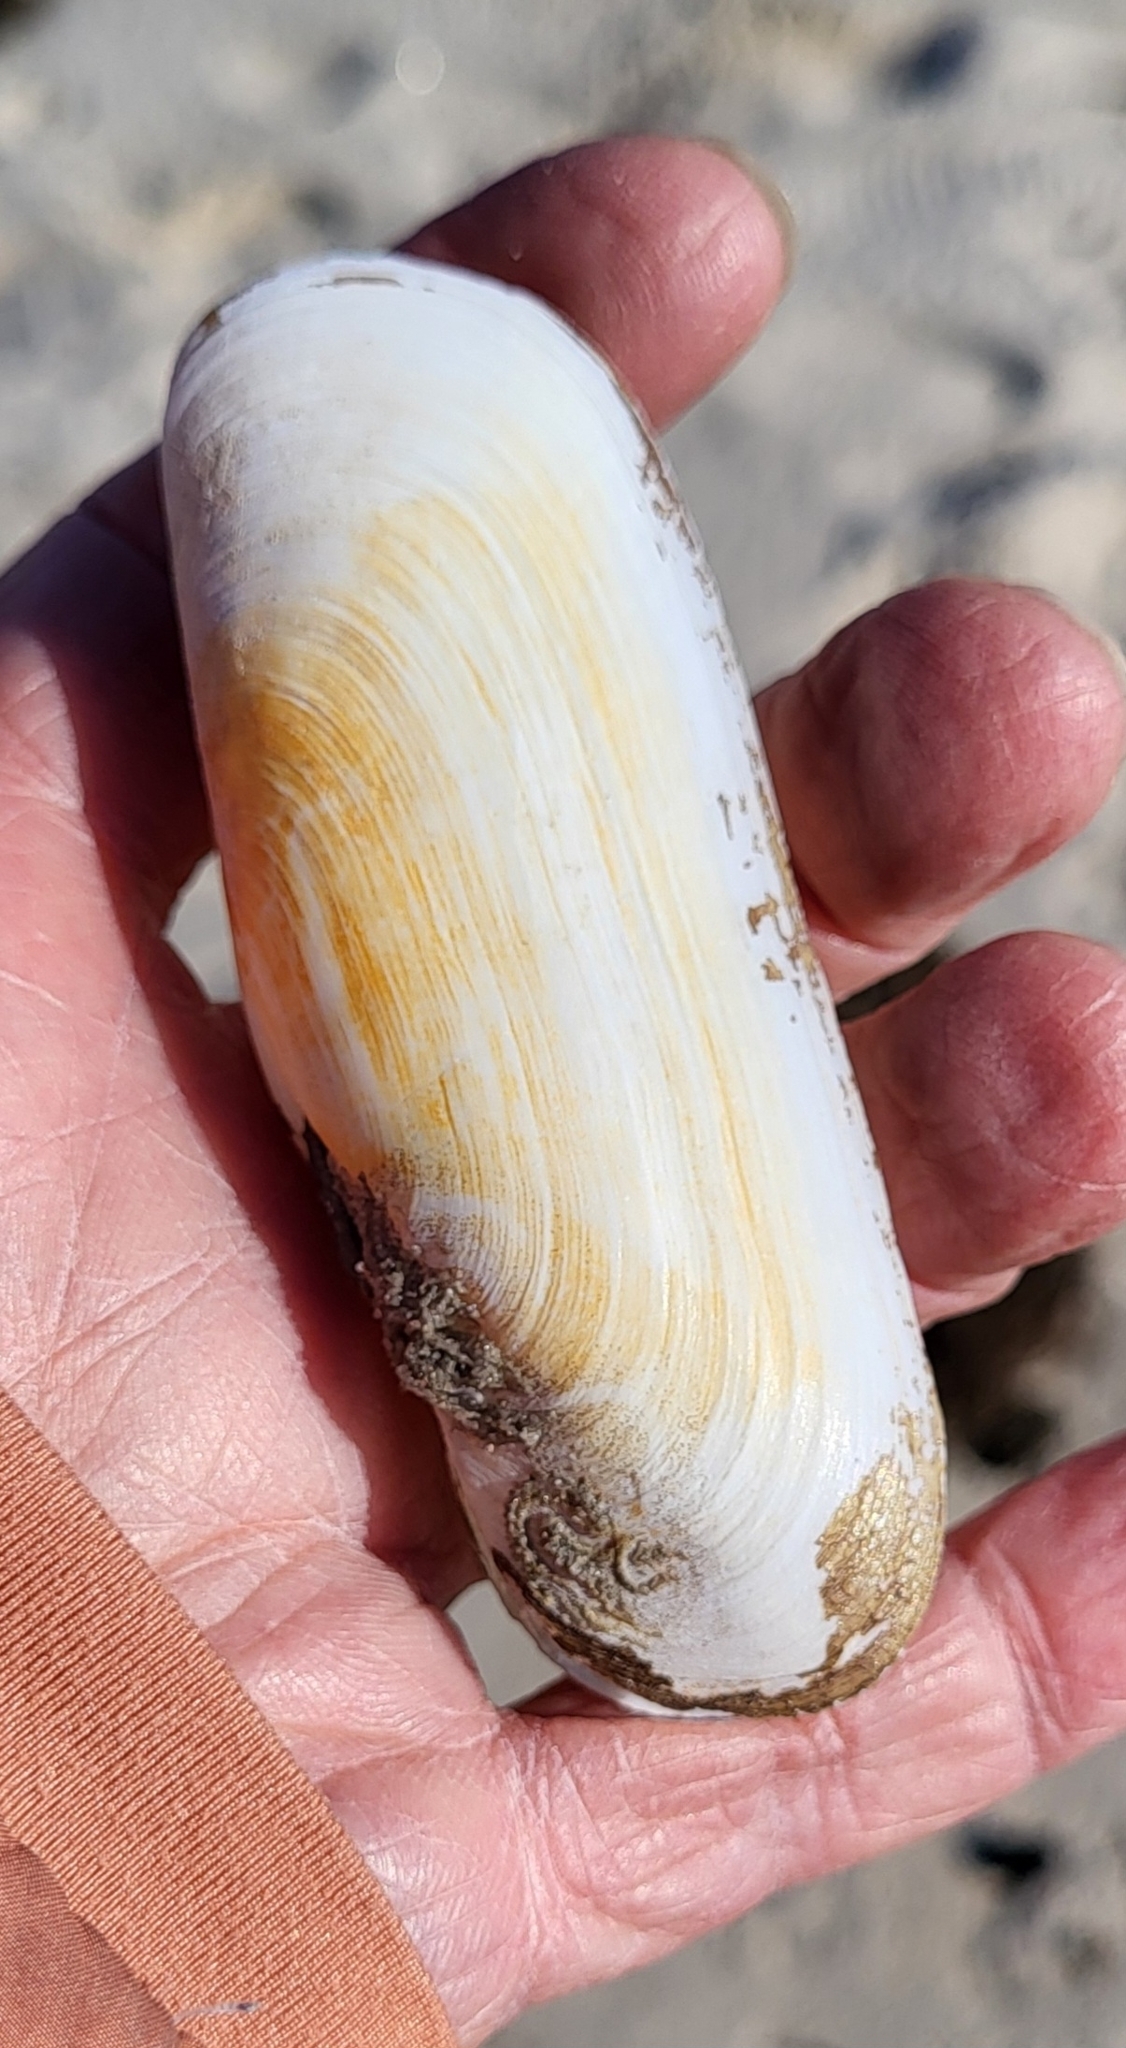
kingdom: Animalia
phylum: Mollusca
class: Bivalvia
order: Cardiida
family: Solecurtidae
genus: Tagelus
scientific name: Tagelus plebeius
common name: Stout tagelus
